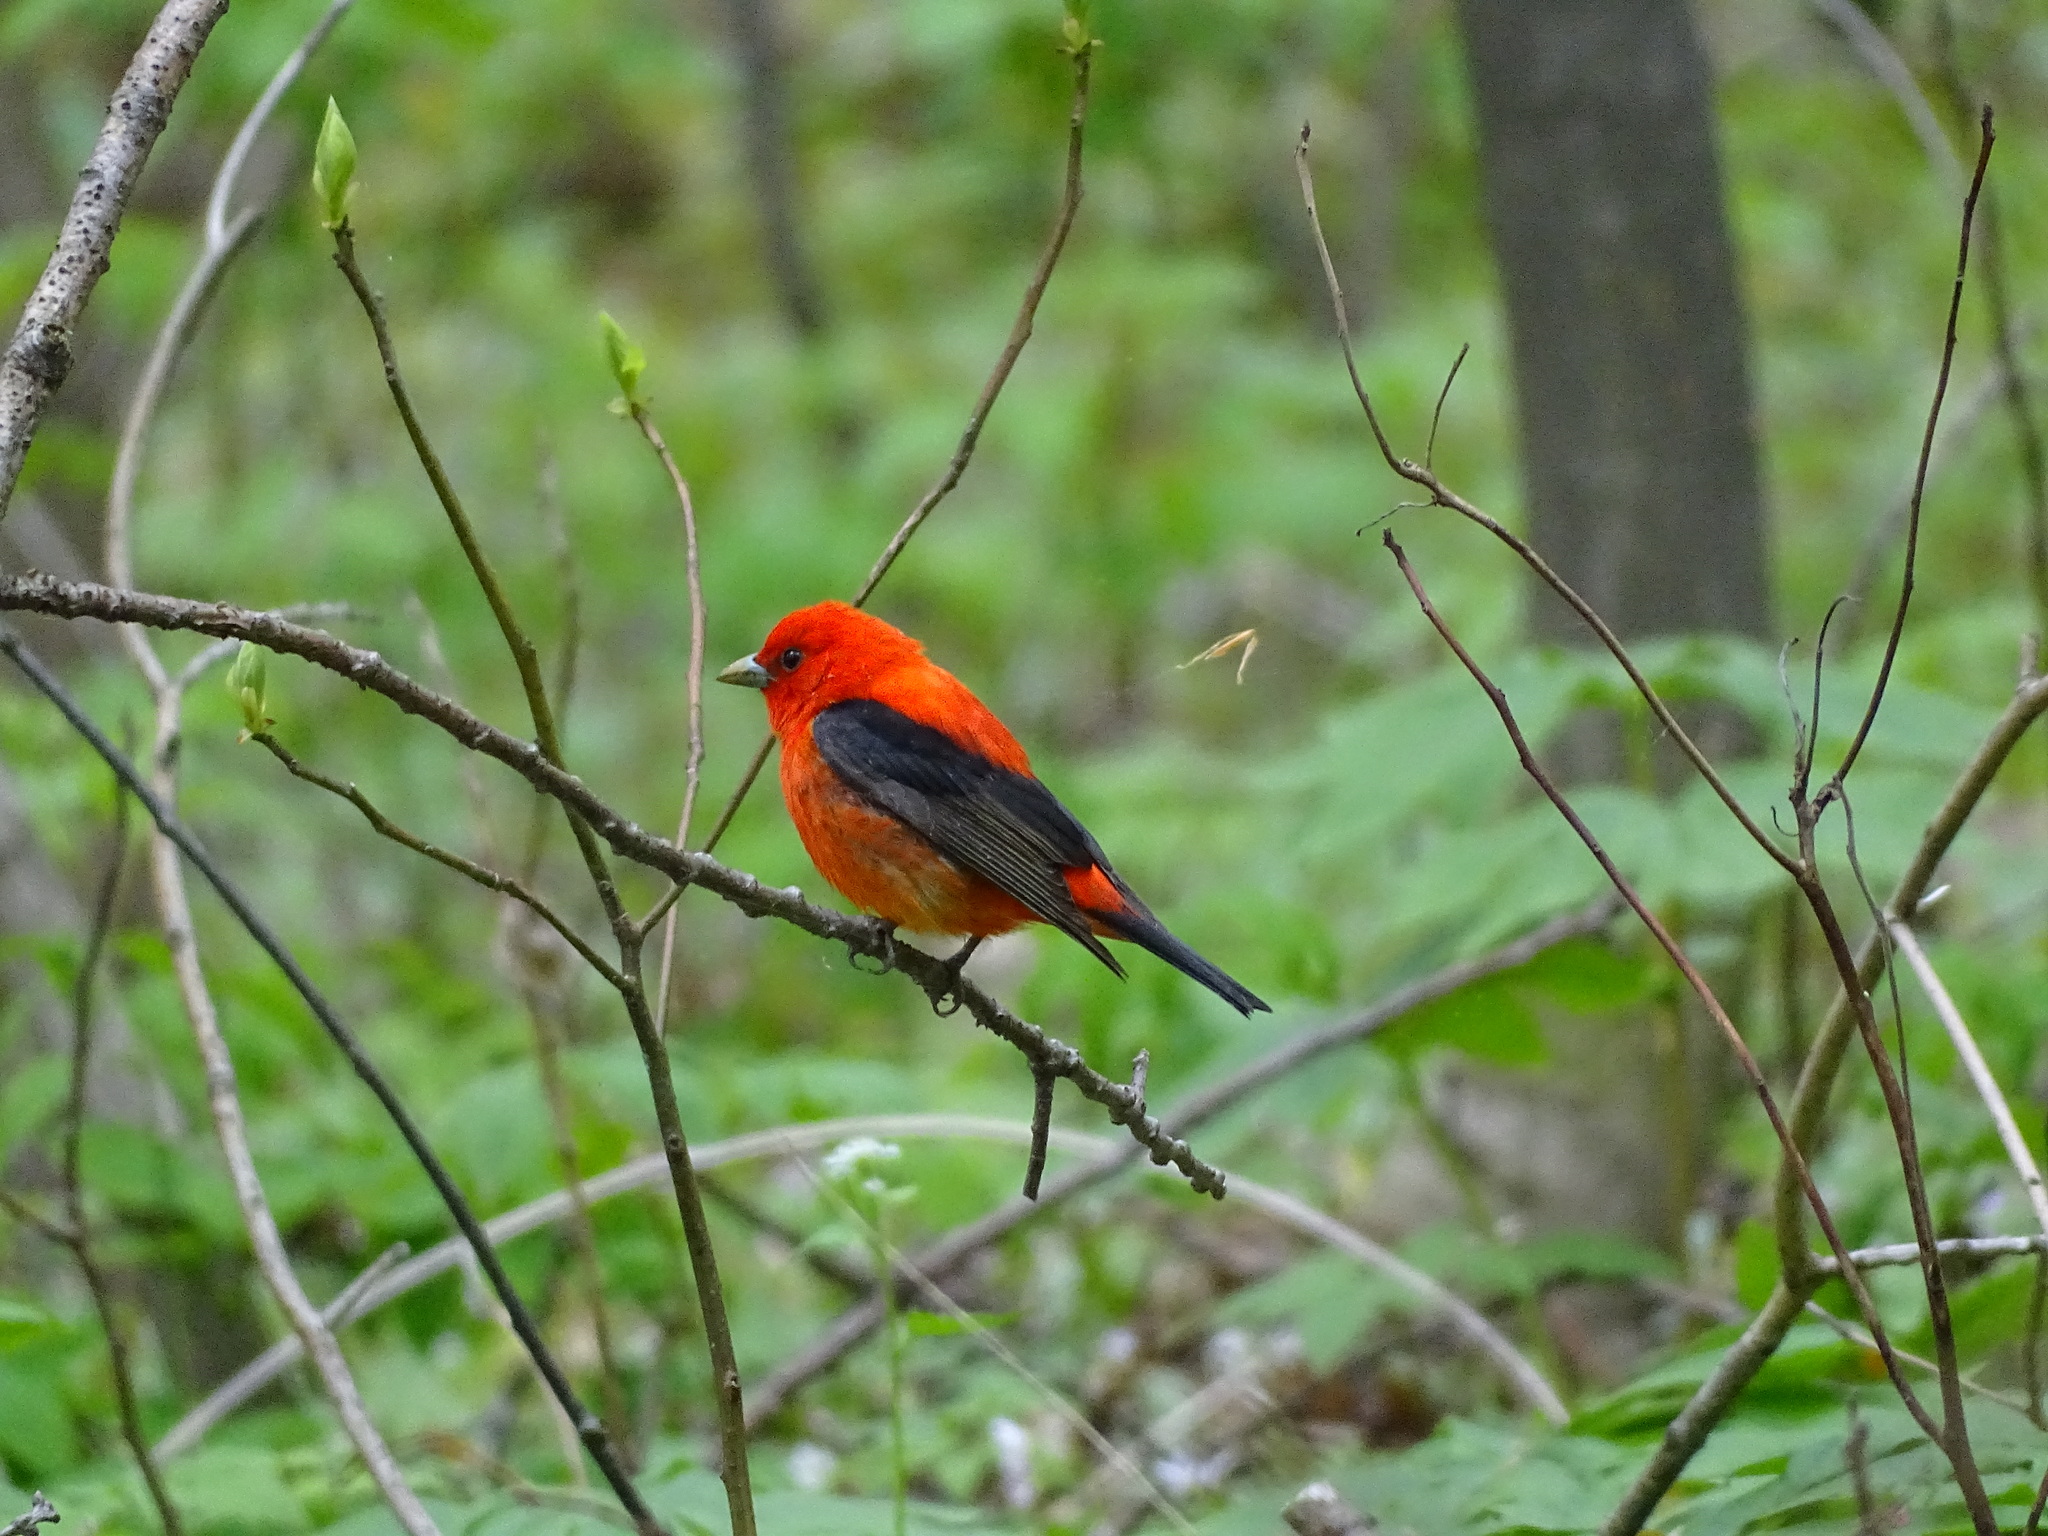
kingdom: Animalia
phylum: Chordata
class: Aves
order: Passeriformes
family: Cardinalidae
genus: Piranga
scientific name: Piranga olivacea
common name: Scarlet tanager
